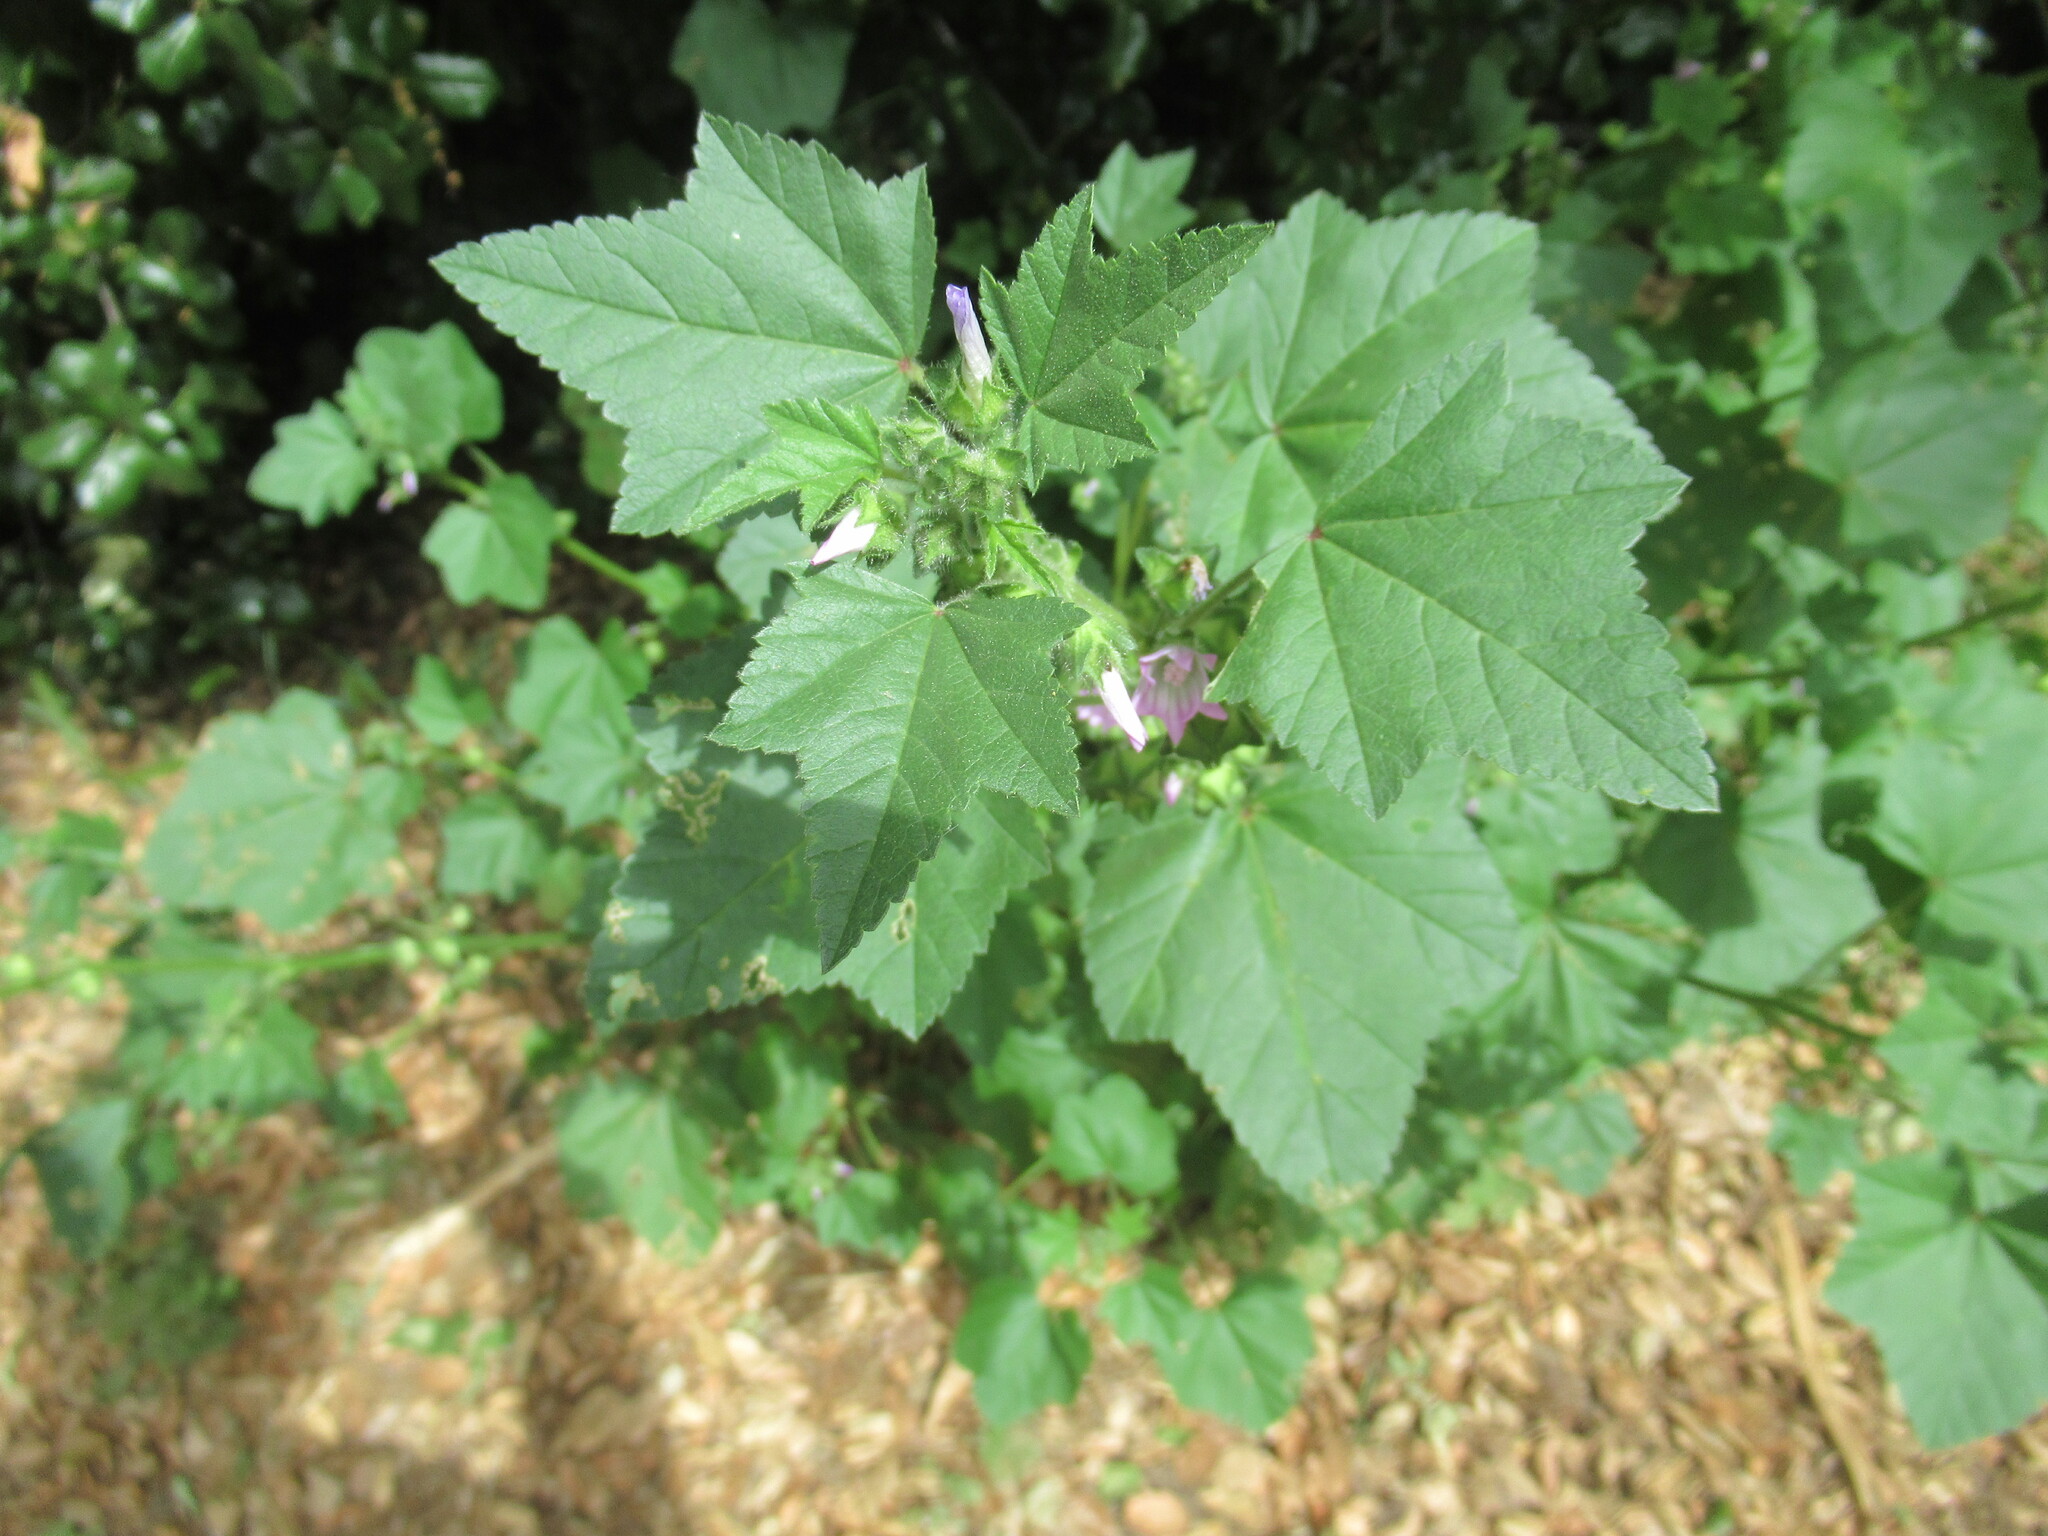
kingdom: Plantae
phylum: Tracheophyta
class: Magnoliopsida
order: Malvales
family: Malvaceae
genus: Malva
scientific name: Malva multiflora
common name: Cheeseweed
